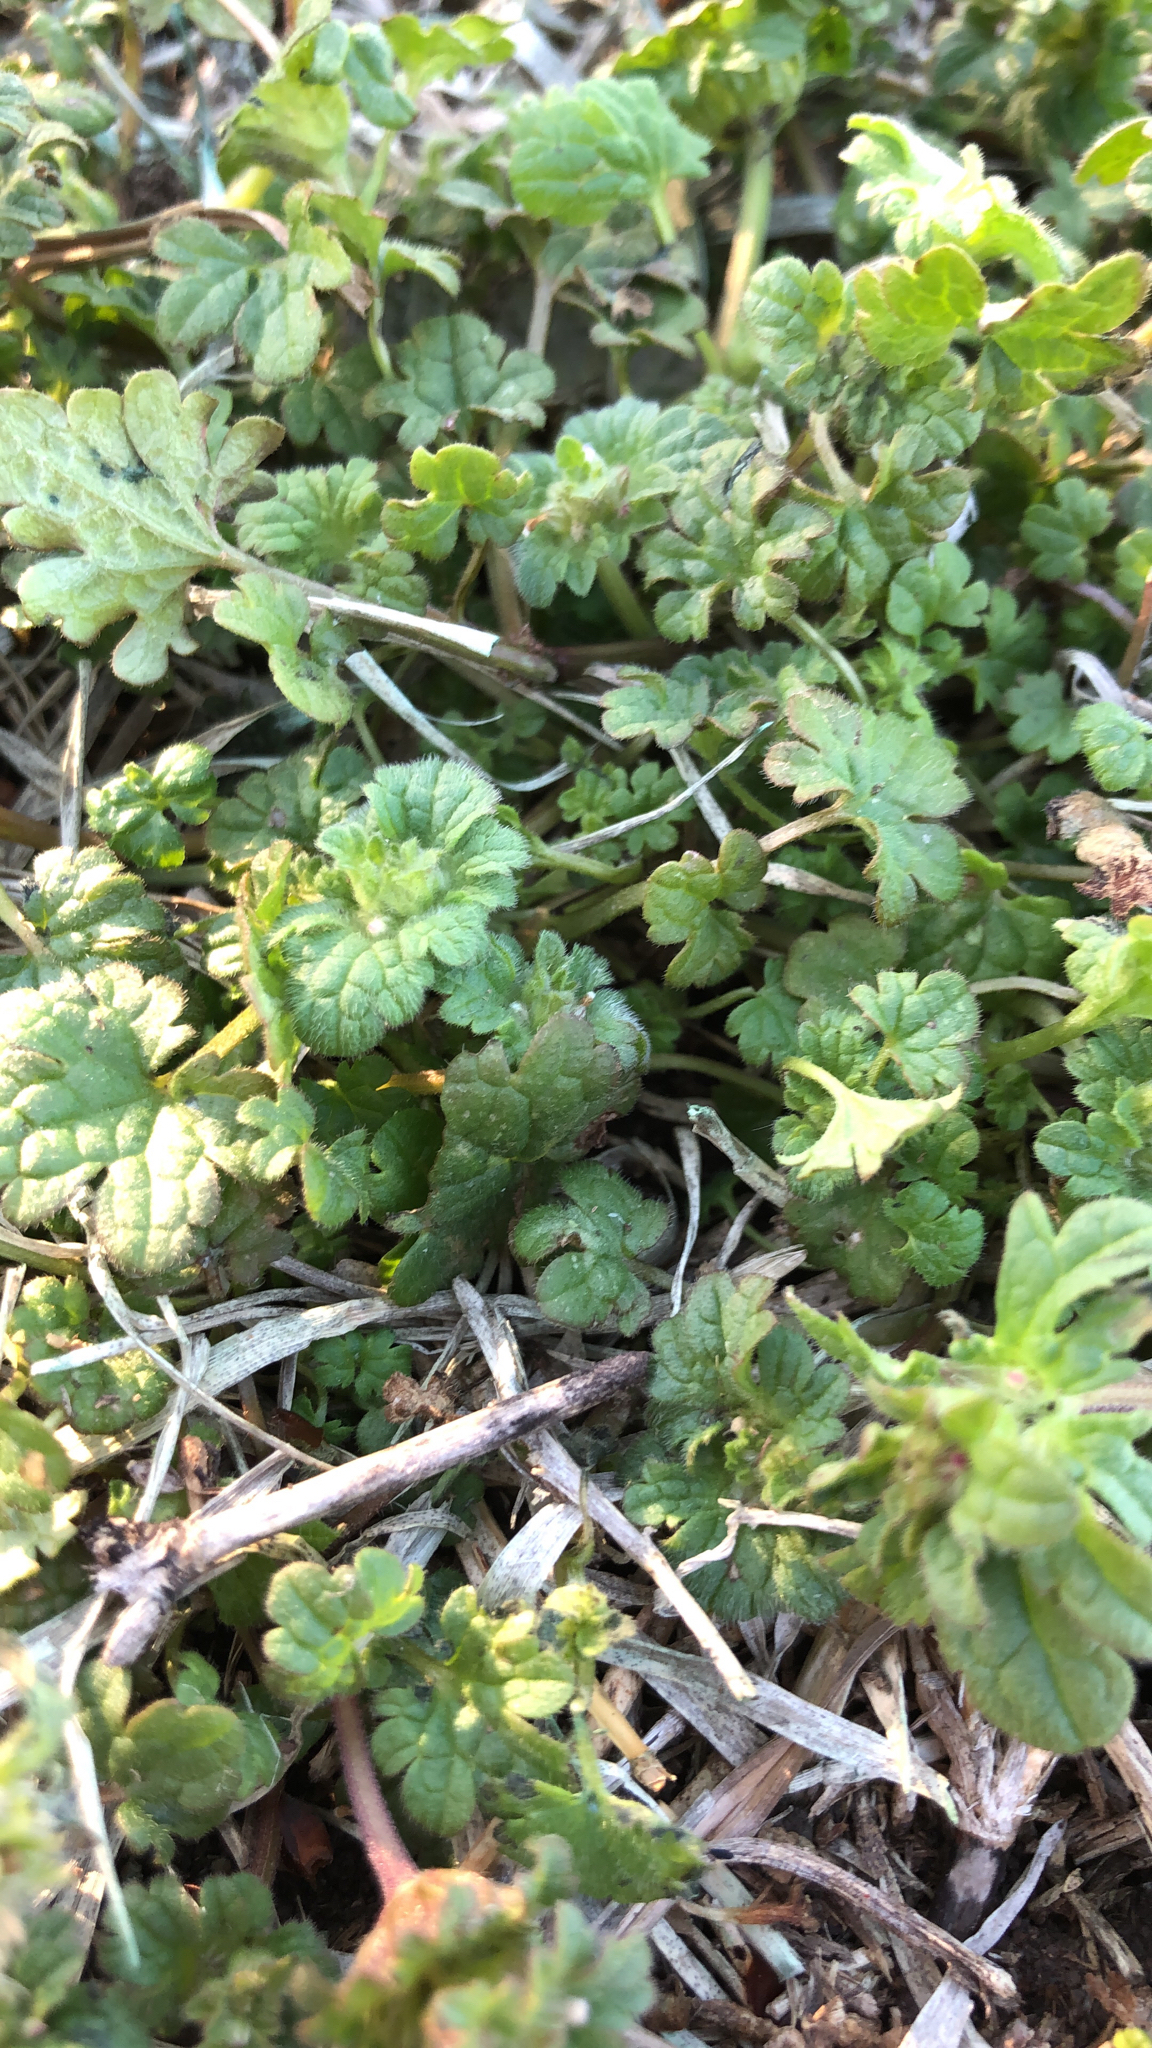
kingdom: Plantae
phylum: Tracheophyta
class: Magnoliopsida
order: Lamiales
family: Lamiaceae
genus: Lamium
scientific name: Lamium amplexicaule
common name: Henbit dead-nettle
